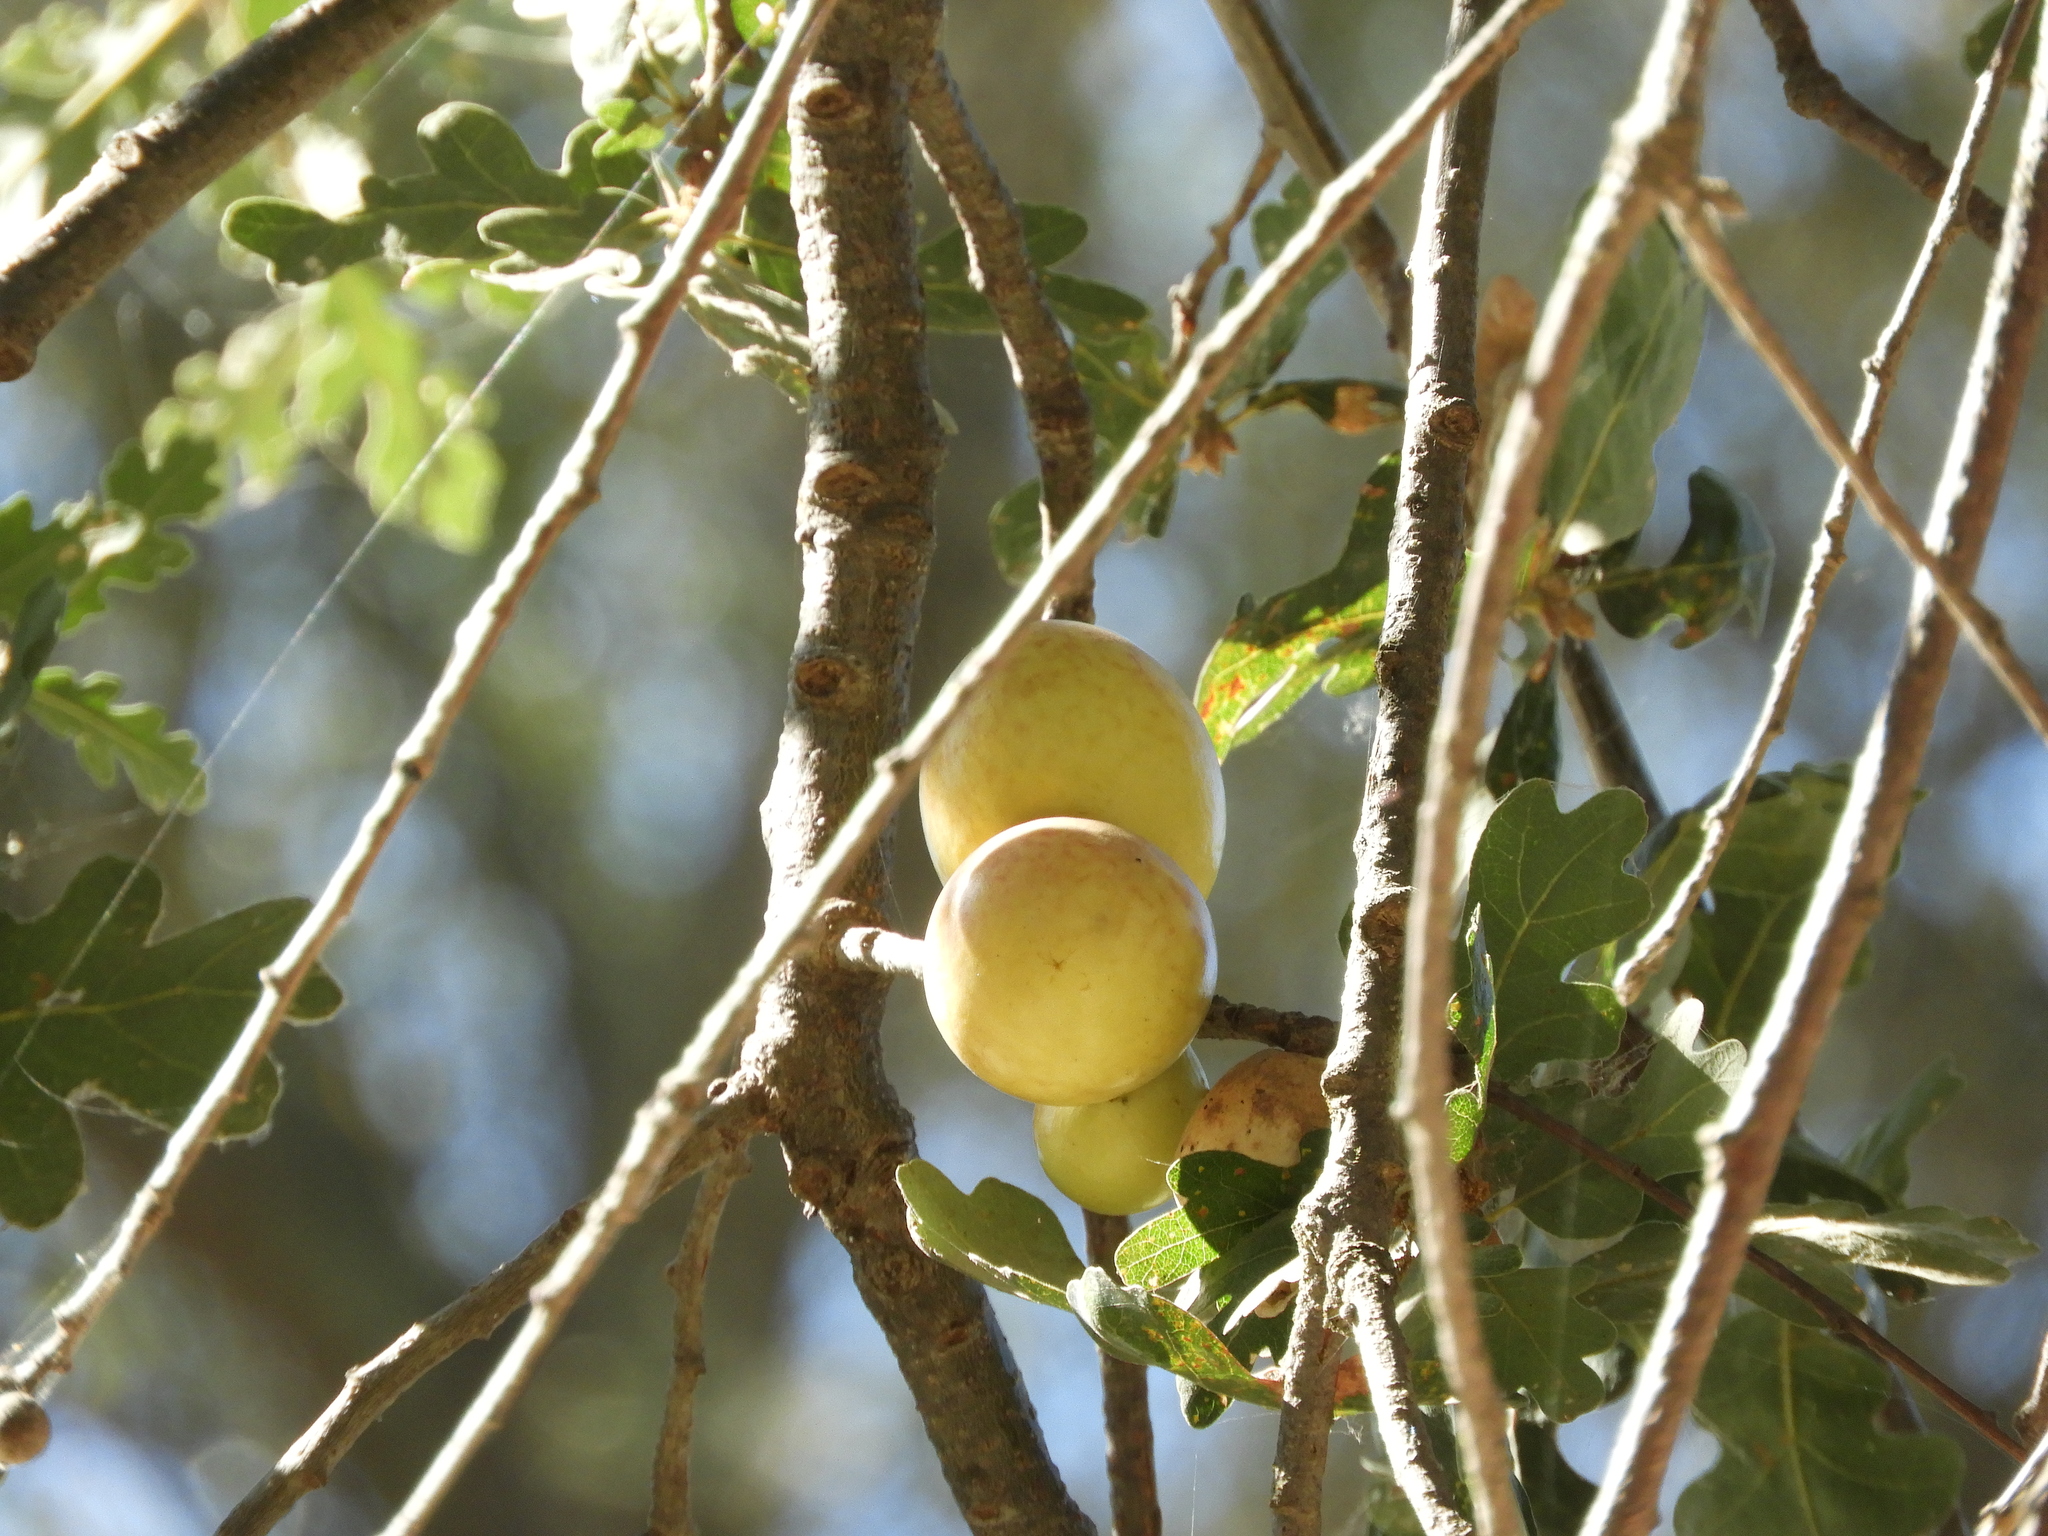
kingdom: Animalia
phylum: Arthropoda
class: Insecta
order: Hymenoptera
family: Cynipidae
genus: Andricus
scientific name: Andricus quercuscalifornicus
